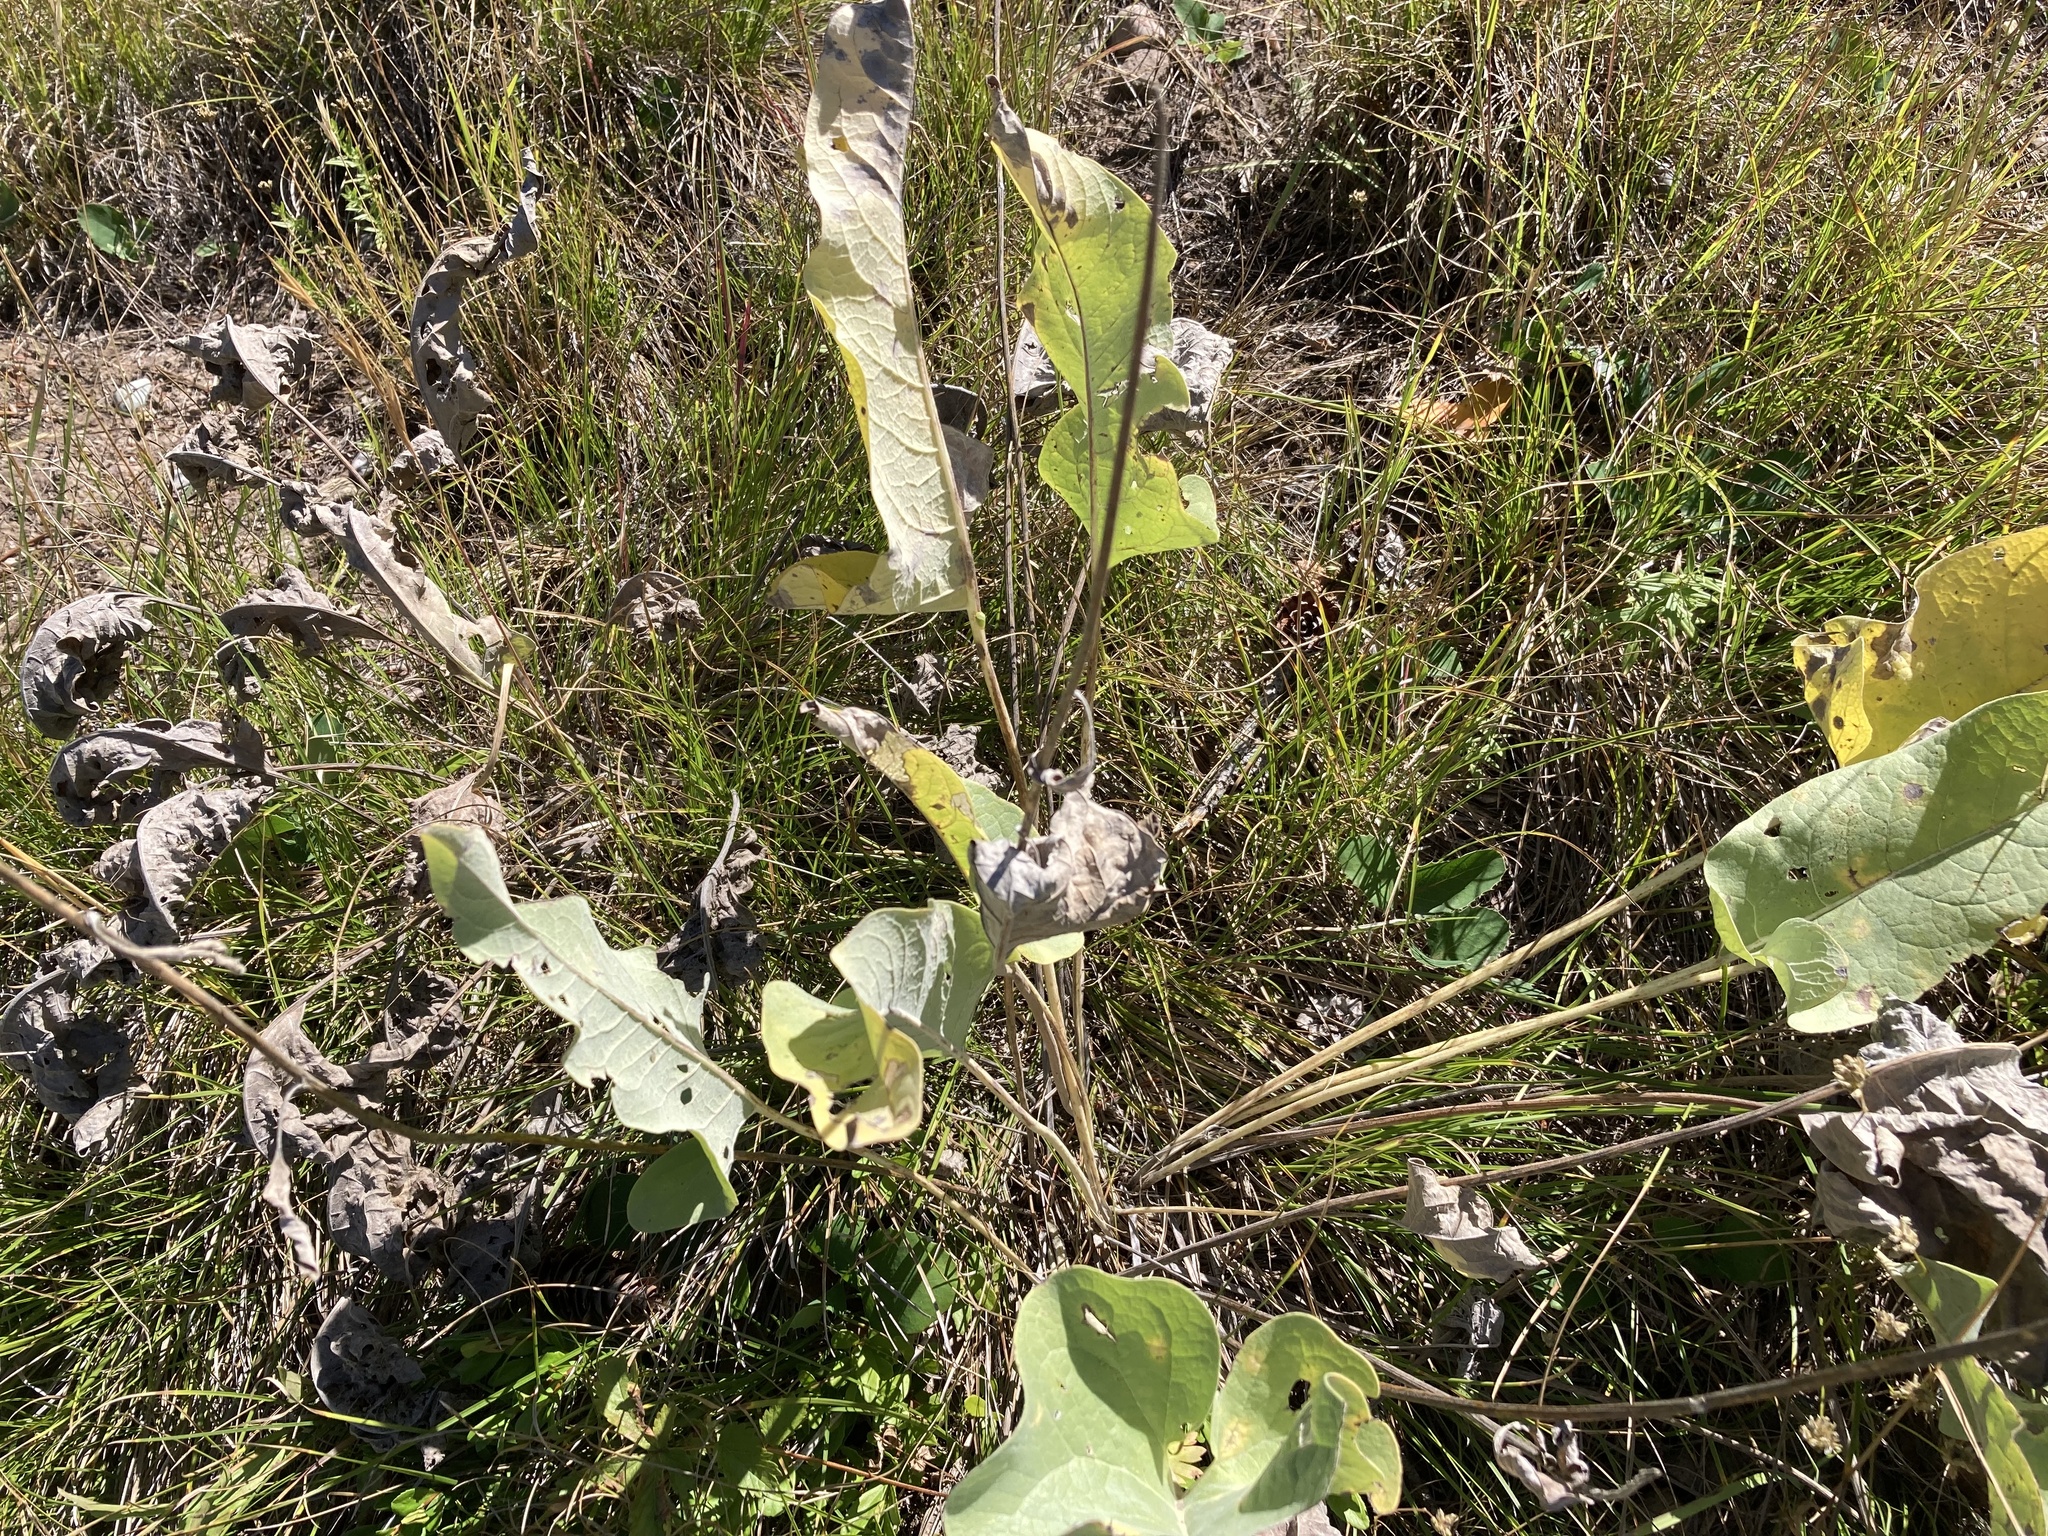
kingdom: Plantae
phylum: Tracheophyta
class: Magnoliopsida
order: Asterales
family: Asteraceae
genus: Wyethia
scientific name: Wyethia sagittata
